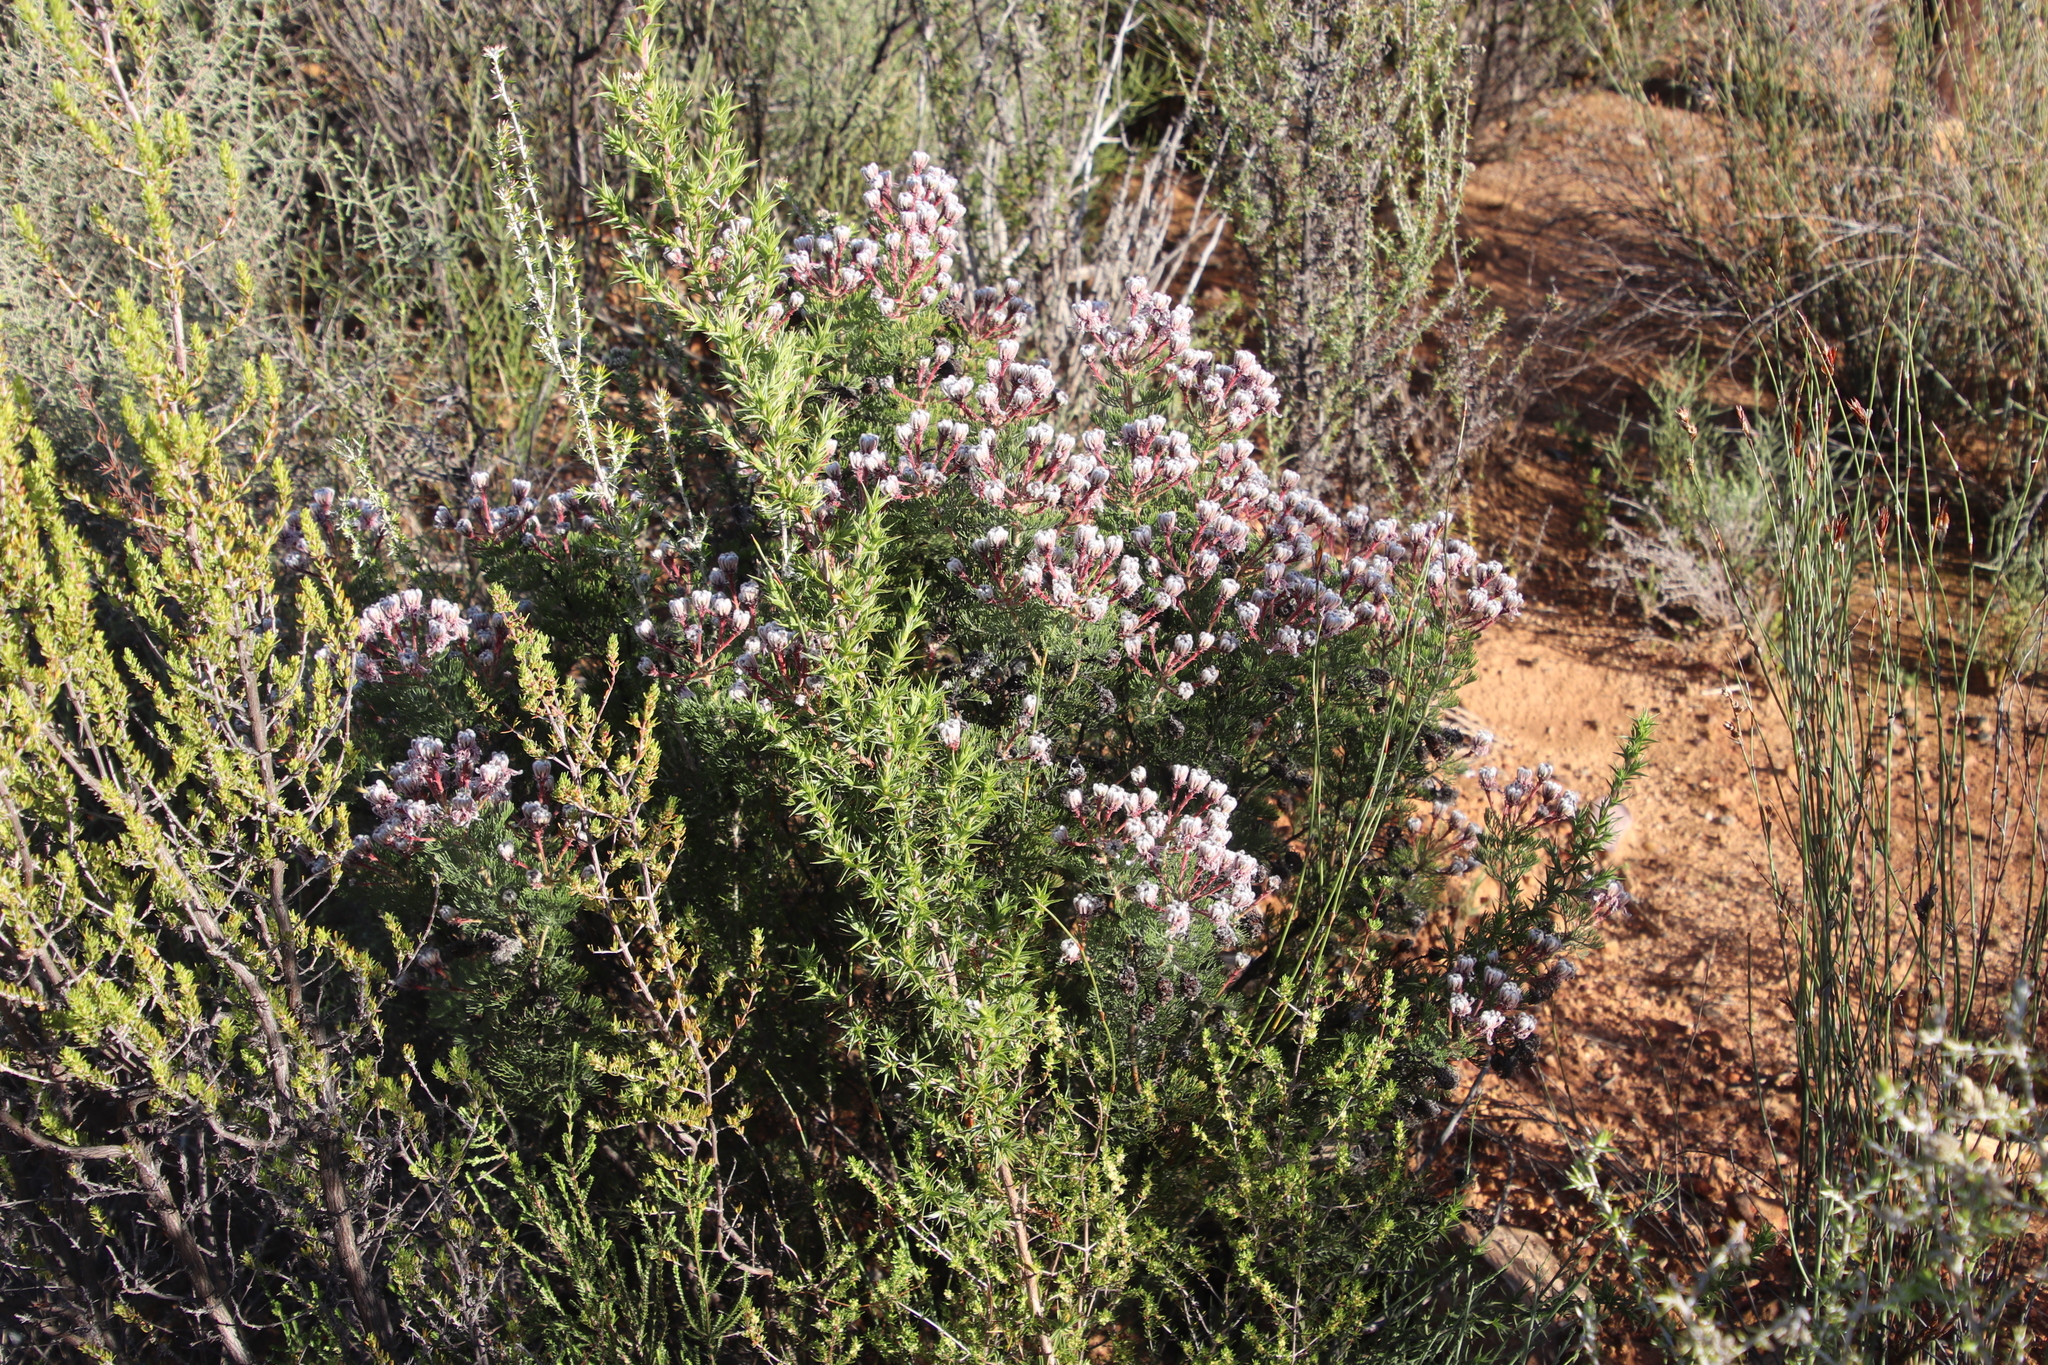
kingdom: Plantae
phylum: Tracheophyta
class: Magnoliopsida
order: Proteales
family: Proteaceae
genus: Serruria
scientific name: Serruria aitonii
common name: Marshmallow spiderhead
